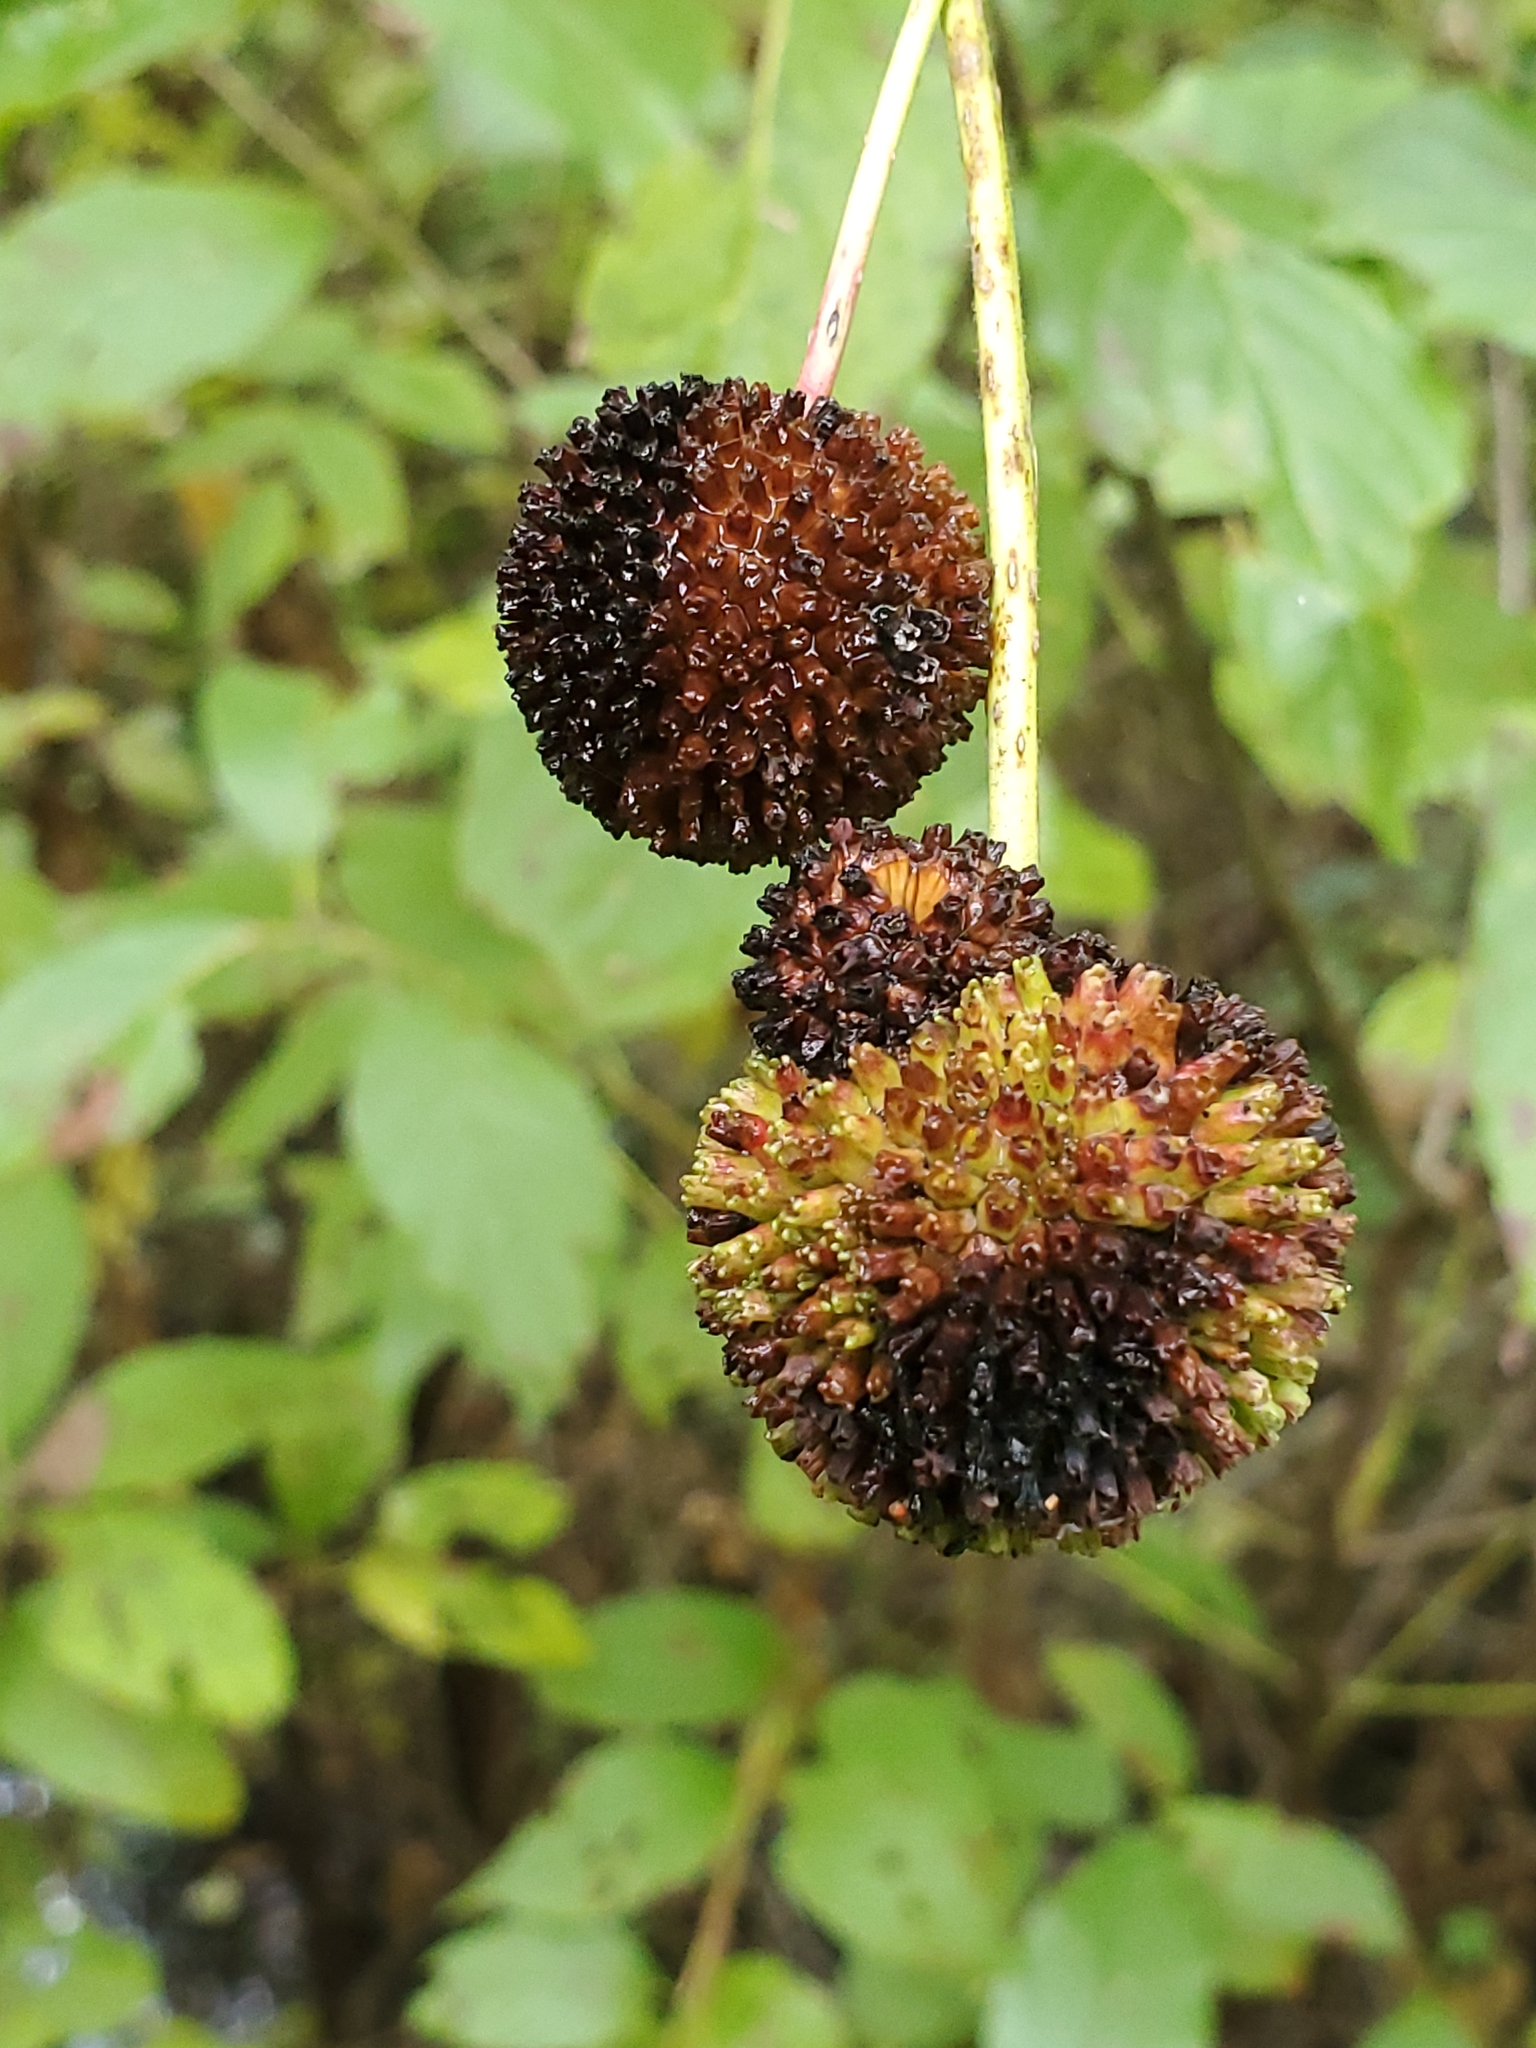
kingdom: Plantae
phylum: Tracheophyta
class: Magnoliopsida
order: Gentianales
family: Rubiaceae
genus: Cephalanthus
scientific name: Cephalanthus occidentalis
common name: Button-willow
